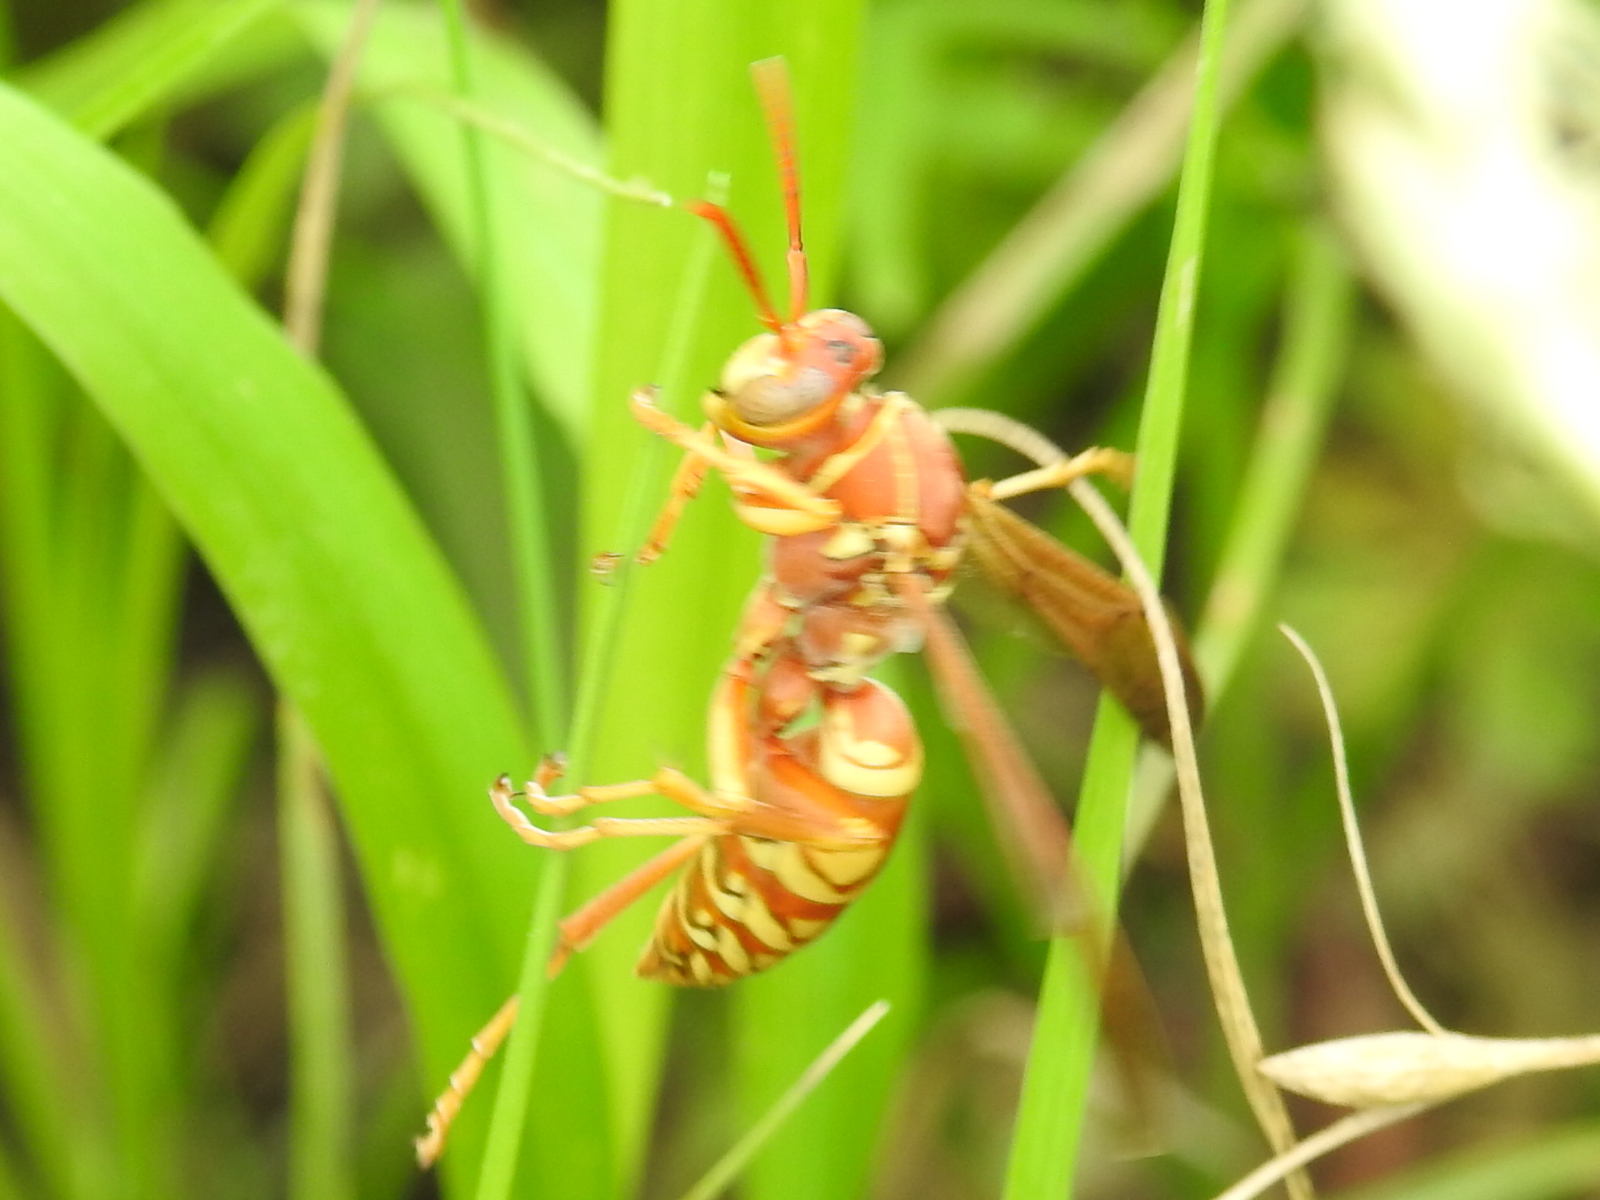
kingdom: Animalia
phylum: Arthropoda
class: Insecta
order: Hymenoptera
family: Eumenidae
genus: Polistes
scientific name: Polistes apachus
